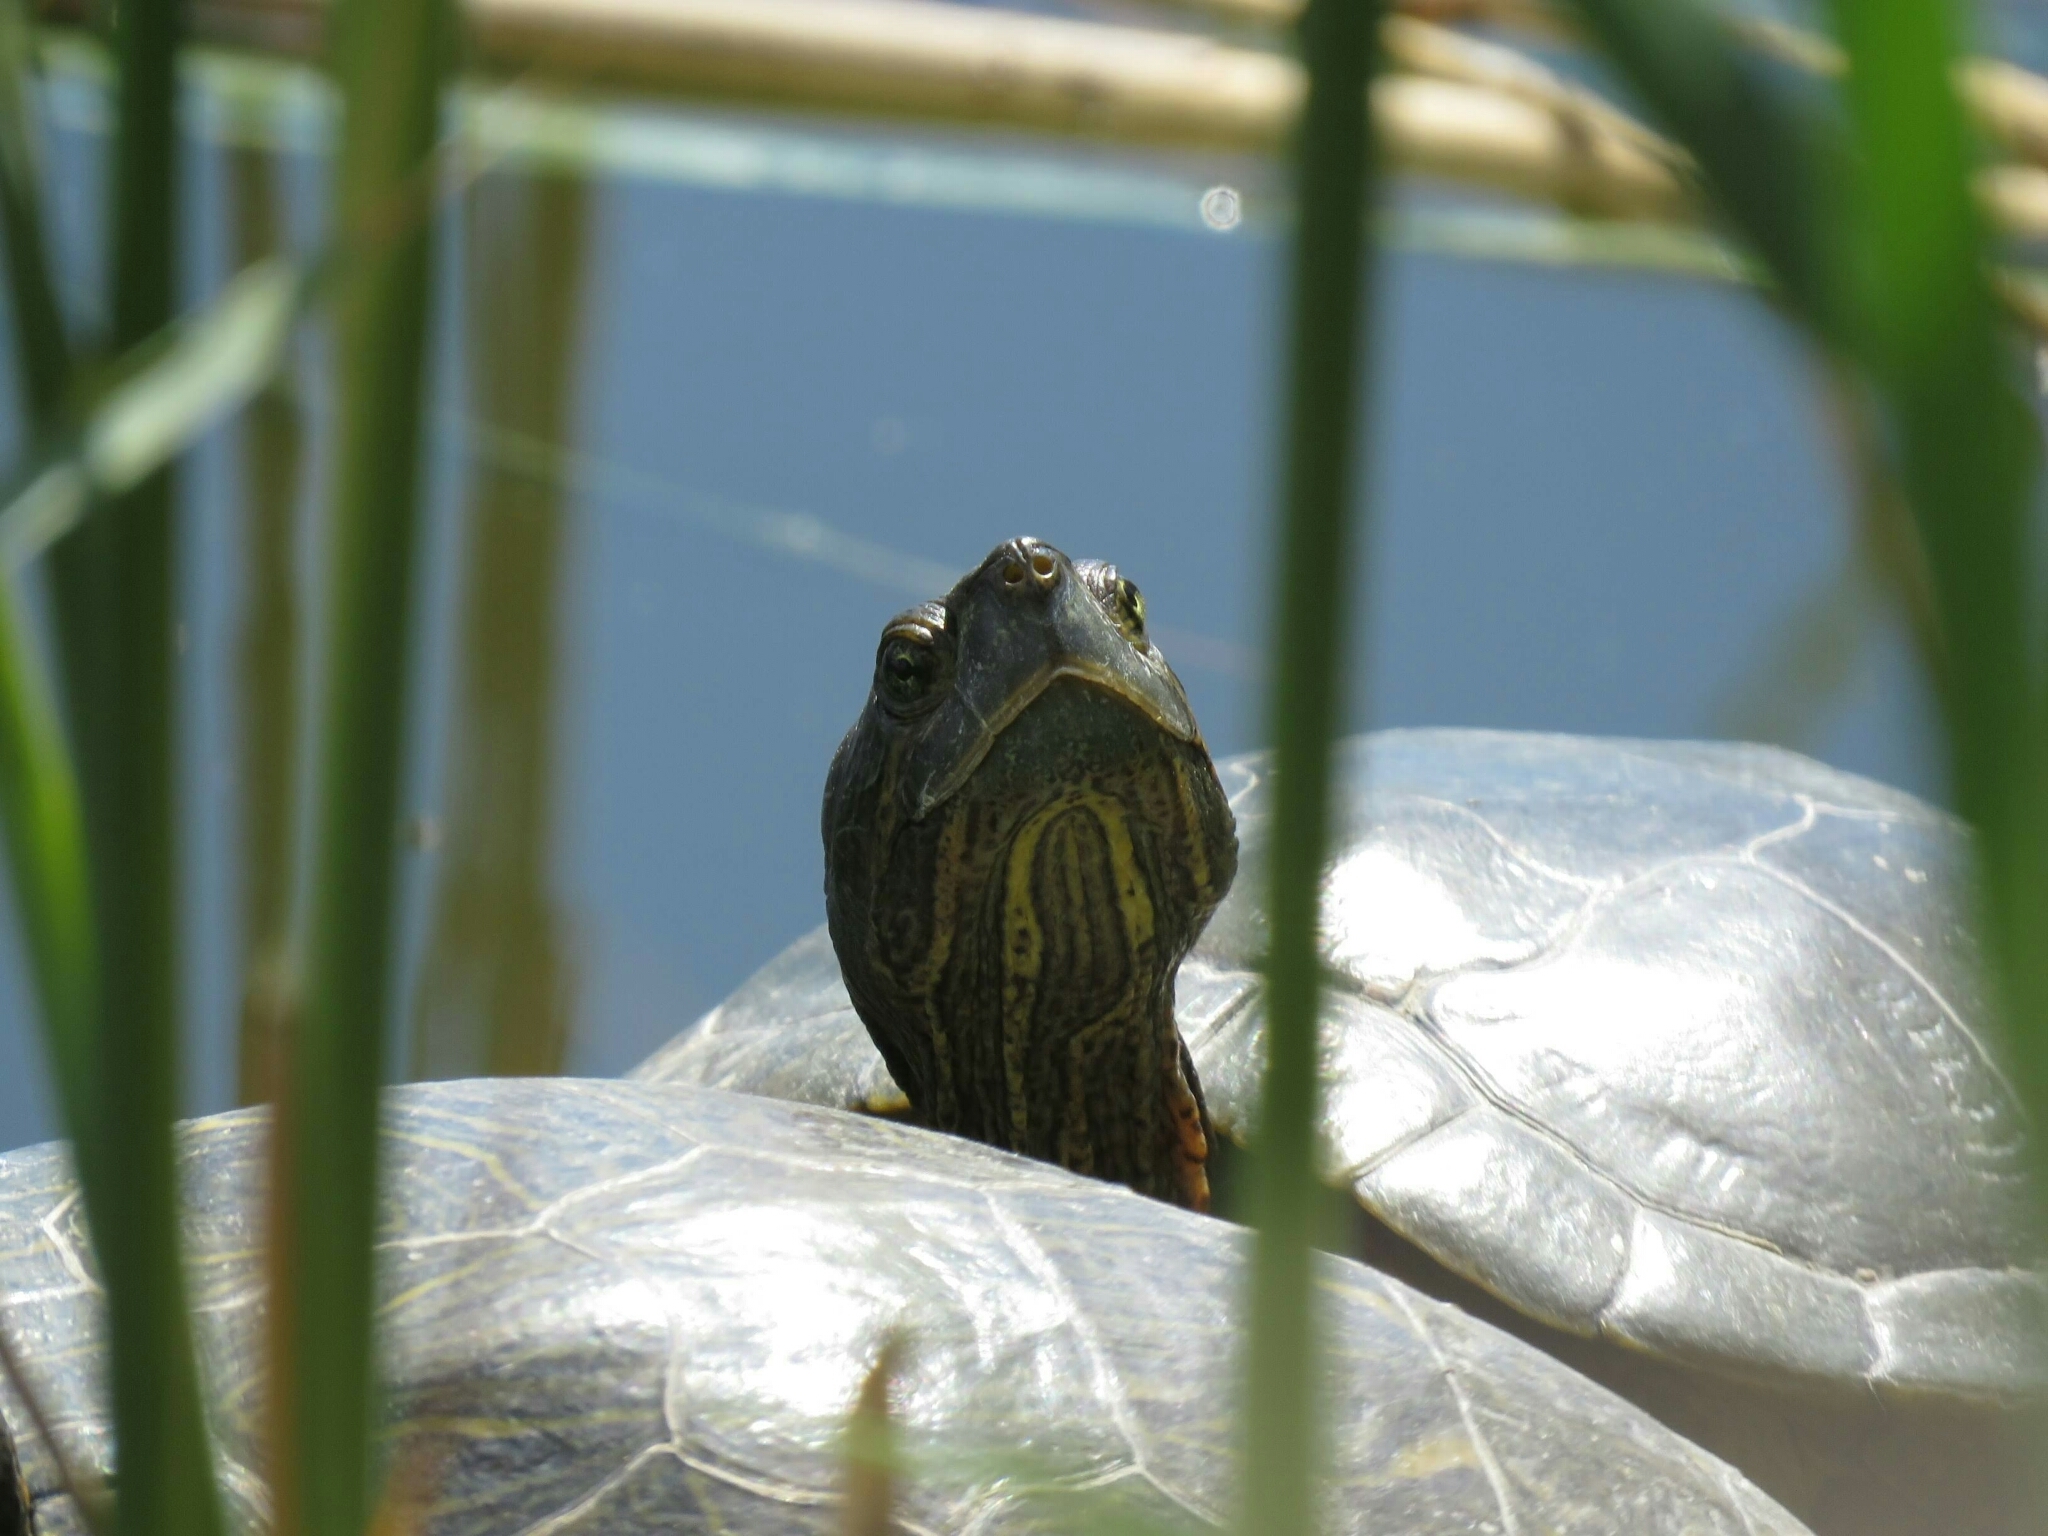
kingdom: Animalia
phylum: Chordata
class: Testudines
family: Emydidae
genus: Trachemys
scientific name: Trachemys scripta
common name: Slider
